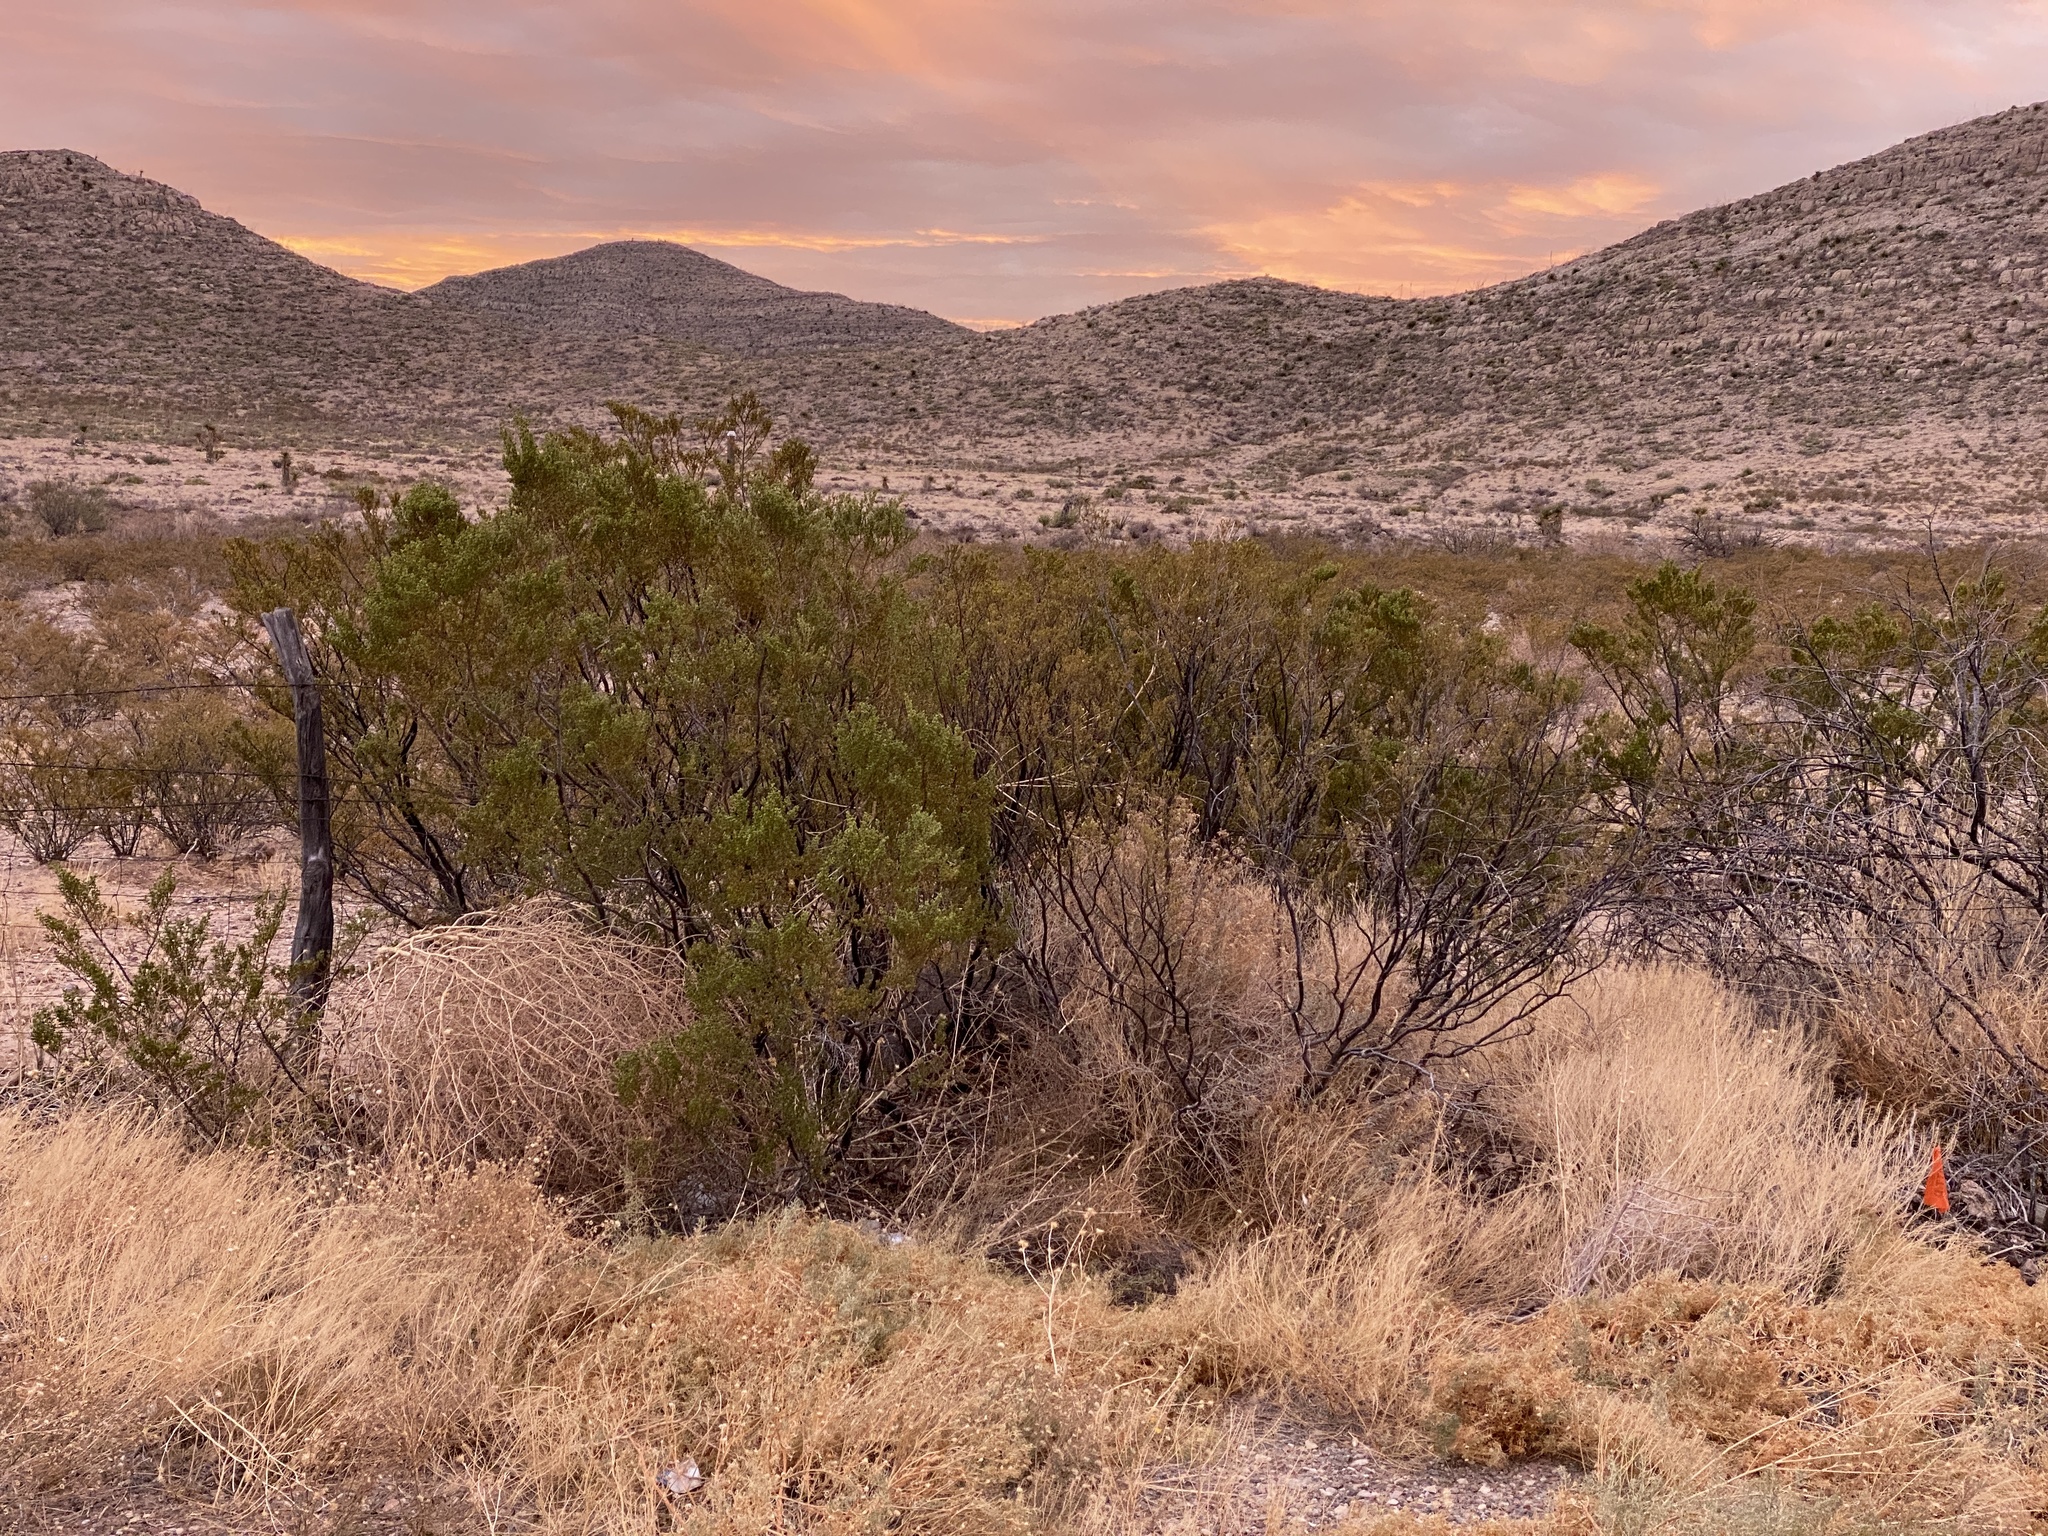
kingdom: Plantae
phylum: Tracheophyta
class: Magnoliopsida
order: Zygophyllales
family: Zygophyllaceae
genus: Larrea
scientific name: Larrea tridentata
